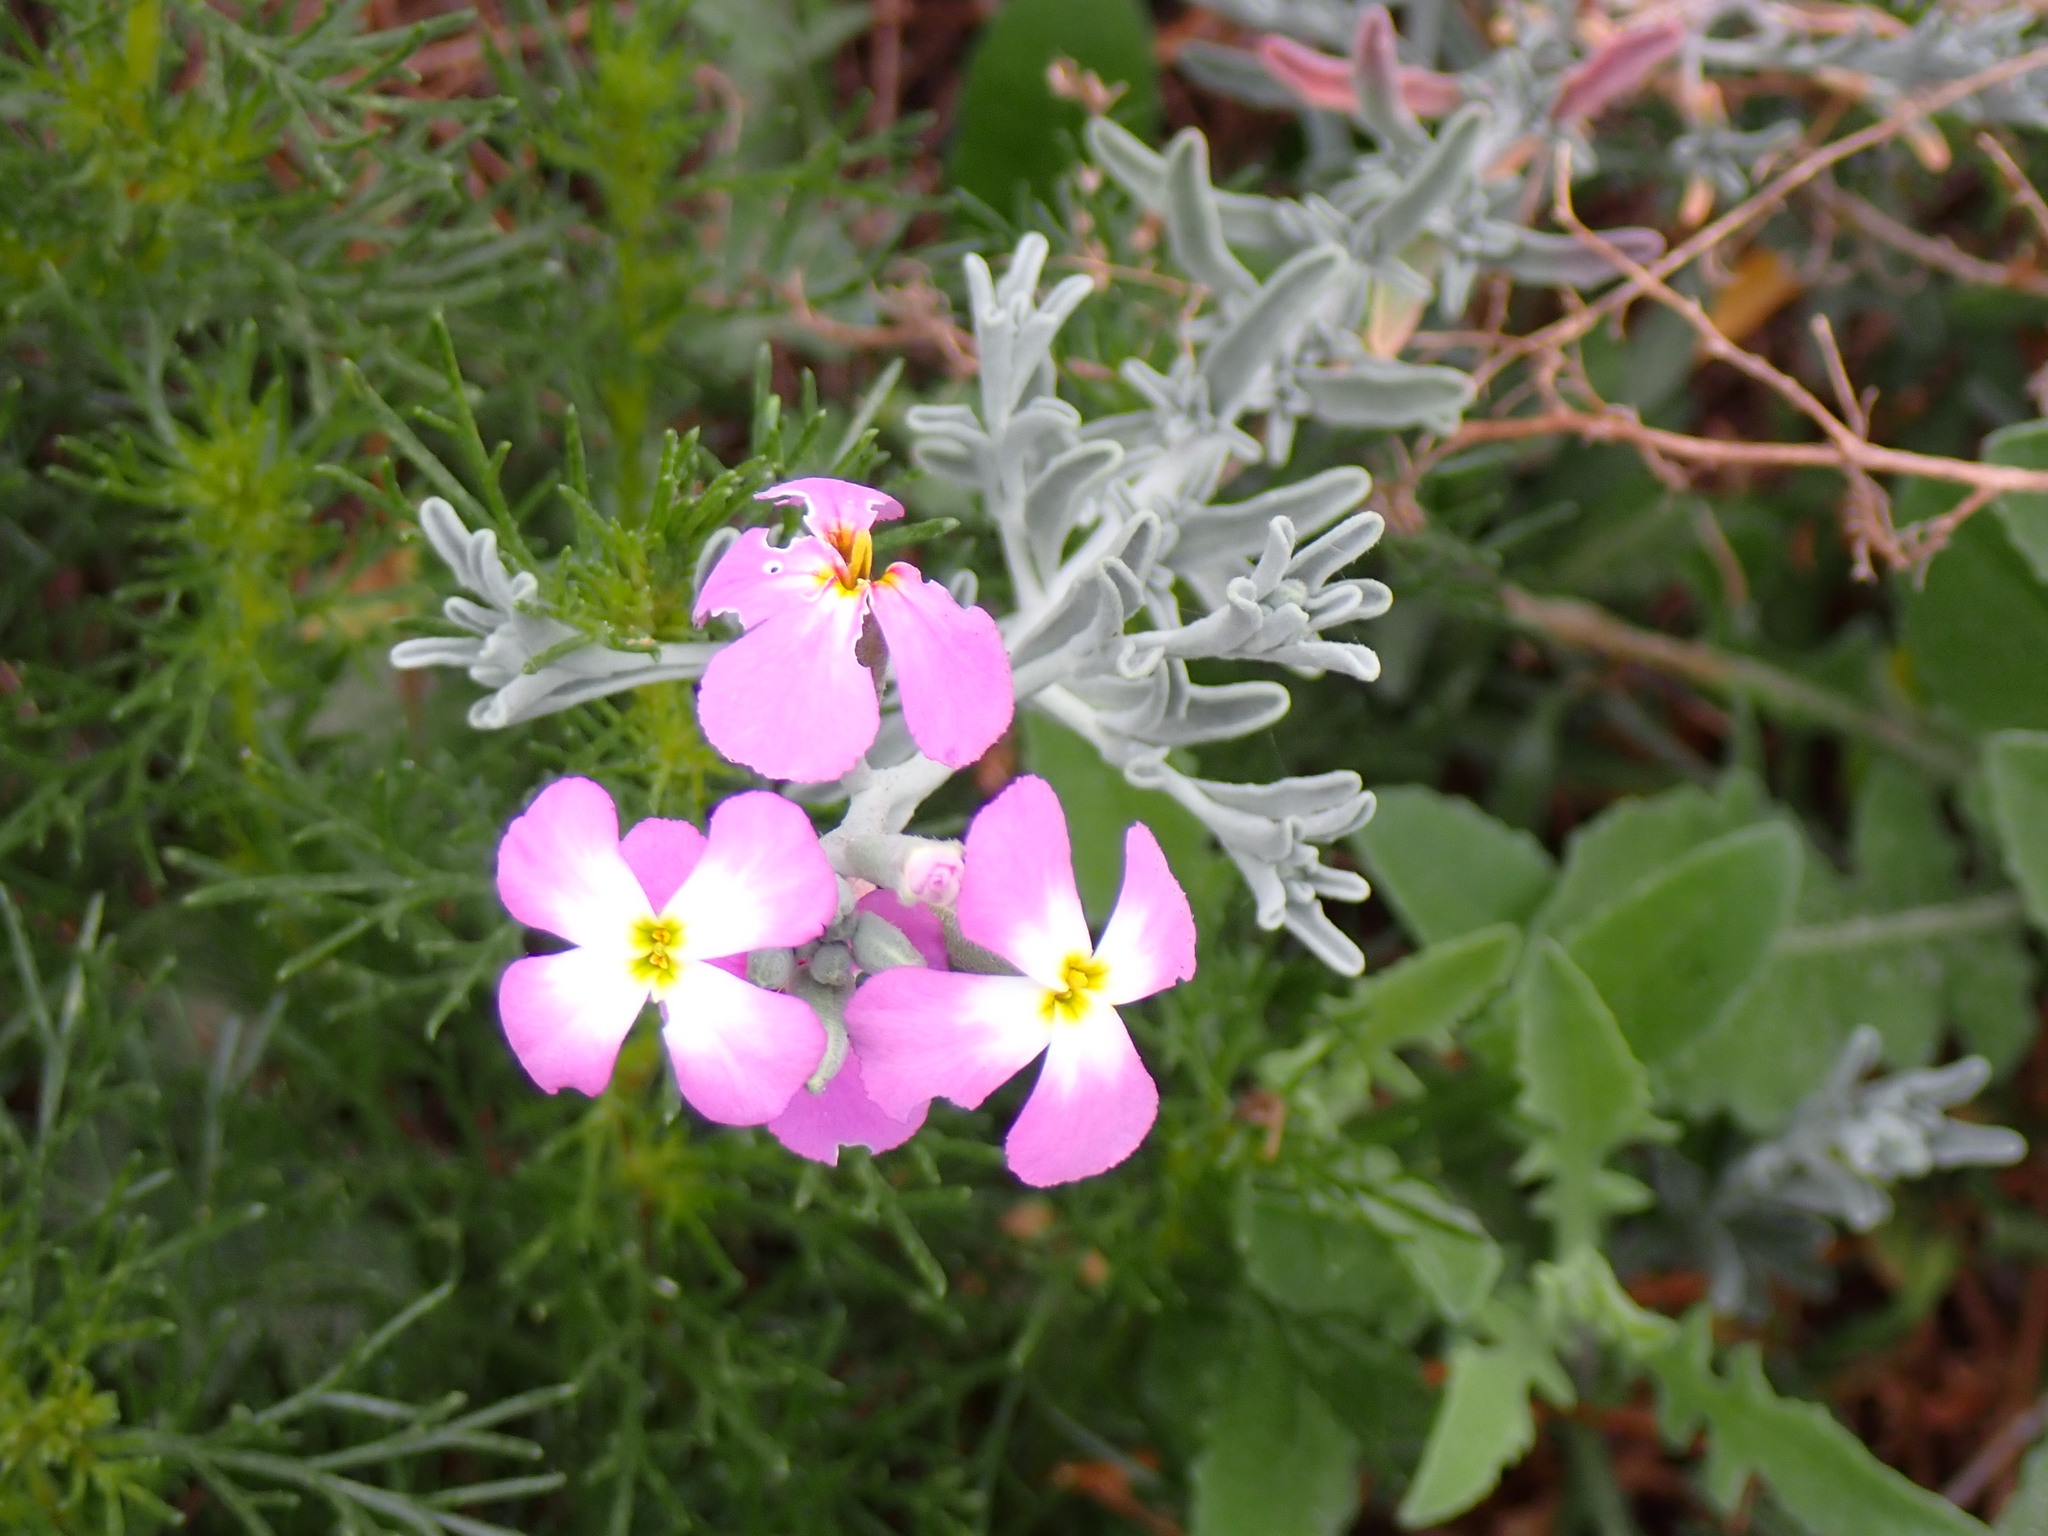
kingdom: Plantae
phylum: Tracheophyta
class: Magnoliopsida
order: Brassicales
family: Brassicaceae
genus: Matthiola
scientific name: Matthiola sinuata
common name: Sea stock
